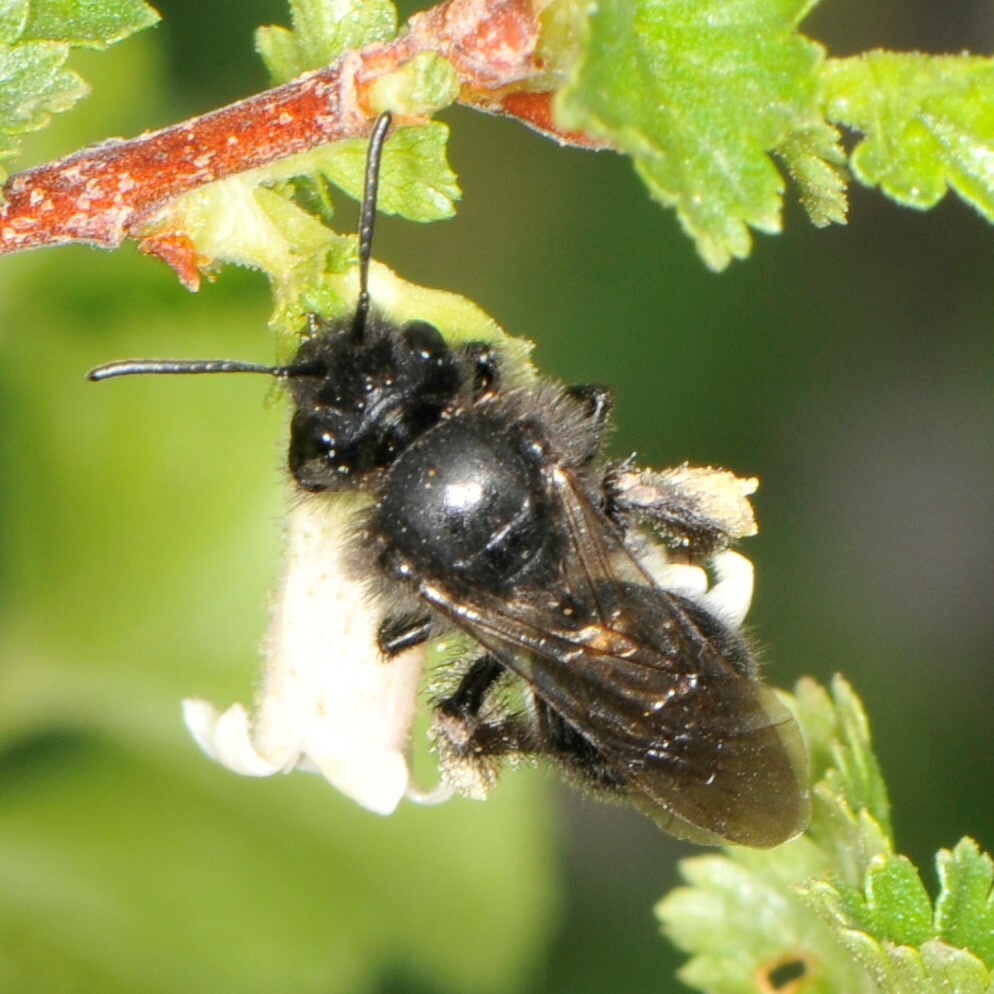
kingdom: Animalia
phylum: Arthropoda
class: Insecta
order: Hymenoptera
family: Andrenidae
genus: Andrena
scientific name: Andrena porterae
